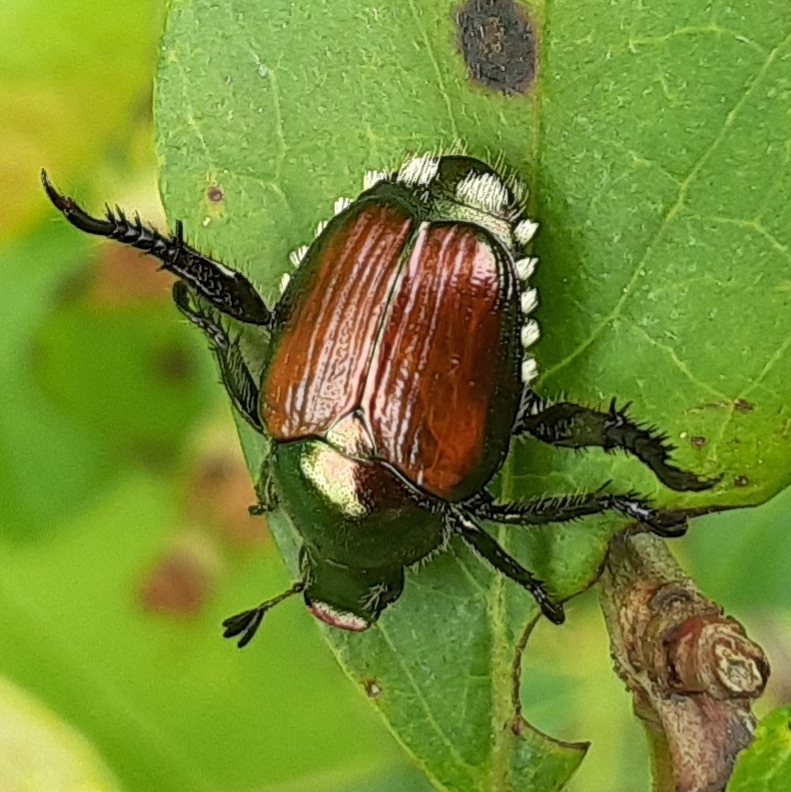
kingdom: Animalia
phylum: Arthropoda
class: Insecta
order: Coleoptera
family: Scarabaeidae
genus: Popillia
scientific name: Popillia japonica
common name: Japanese beetle
